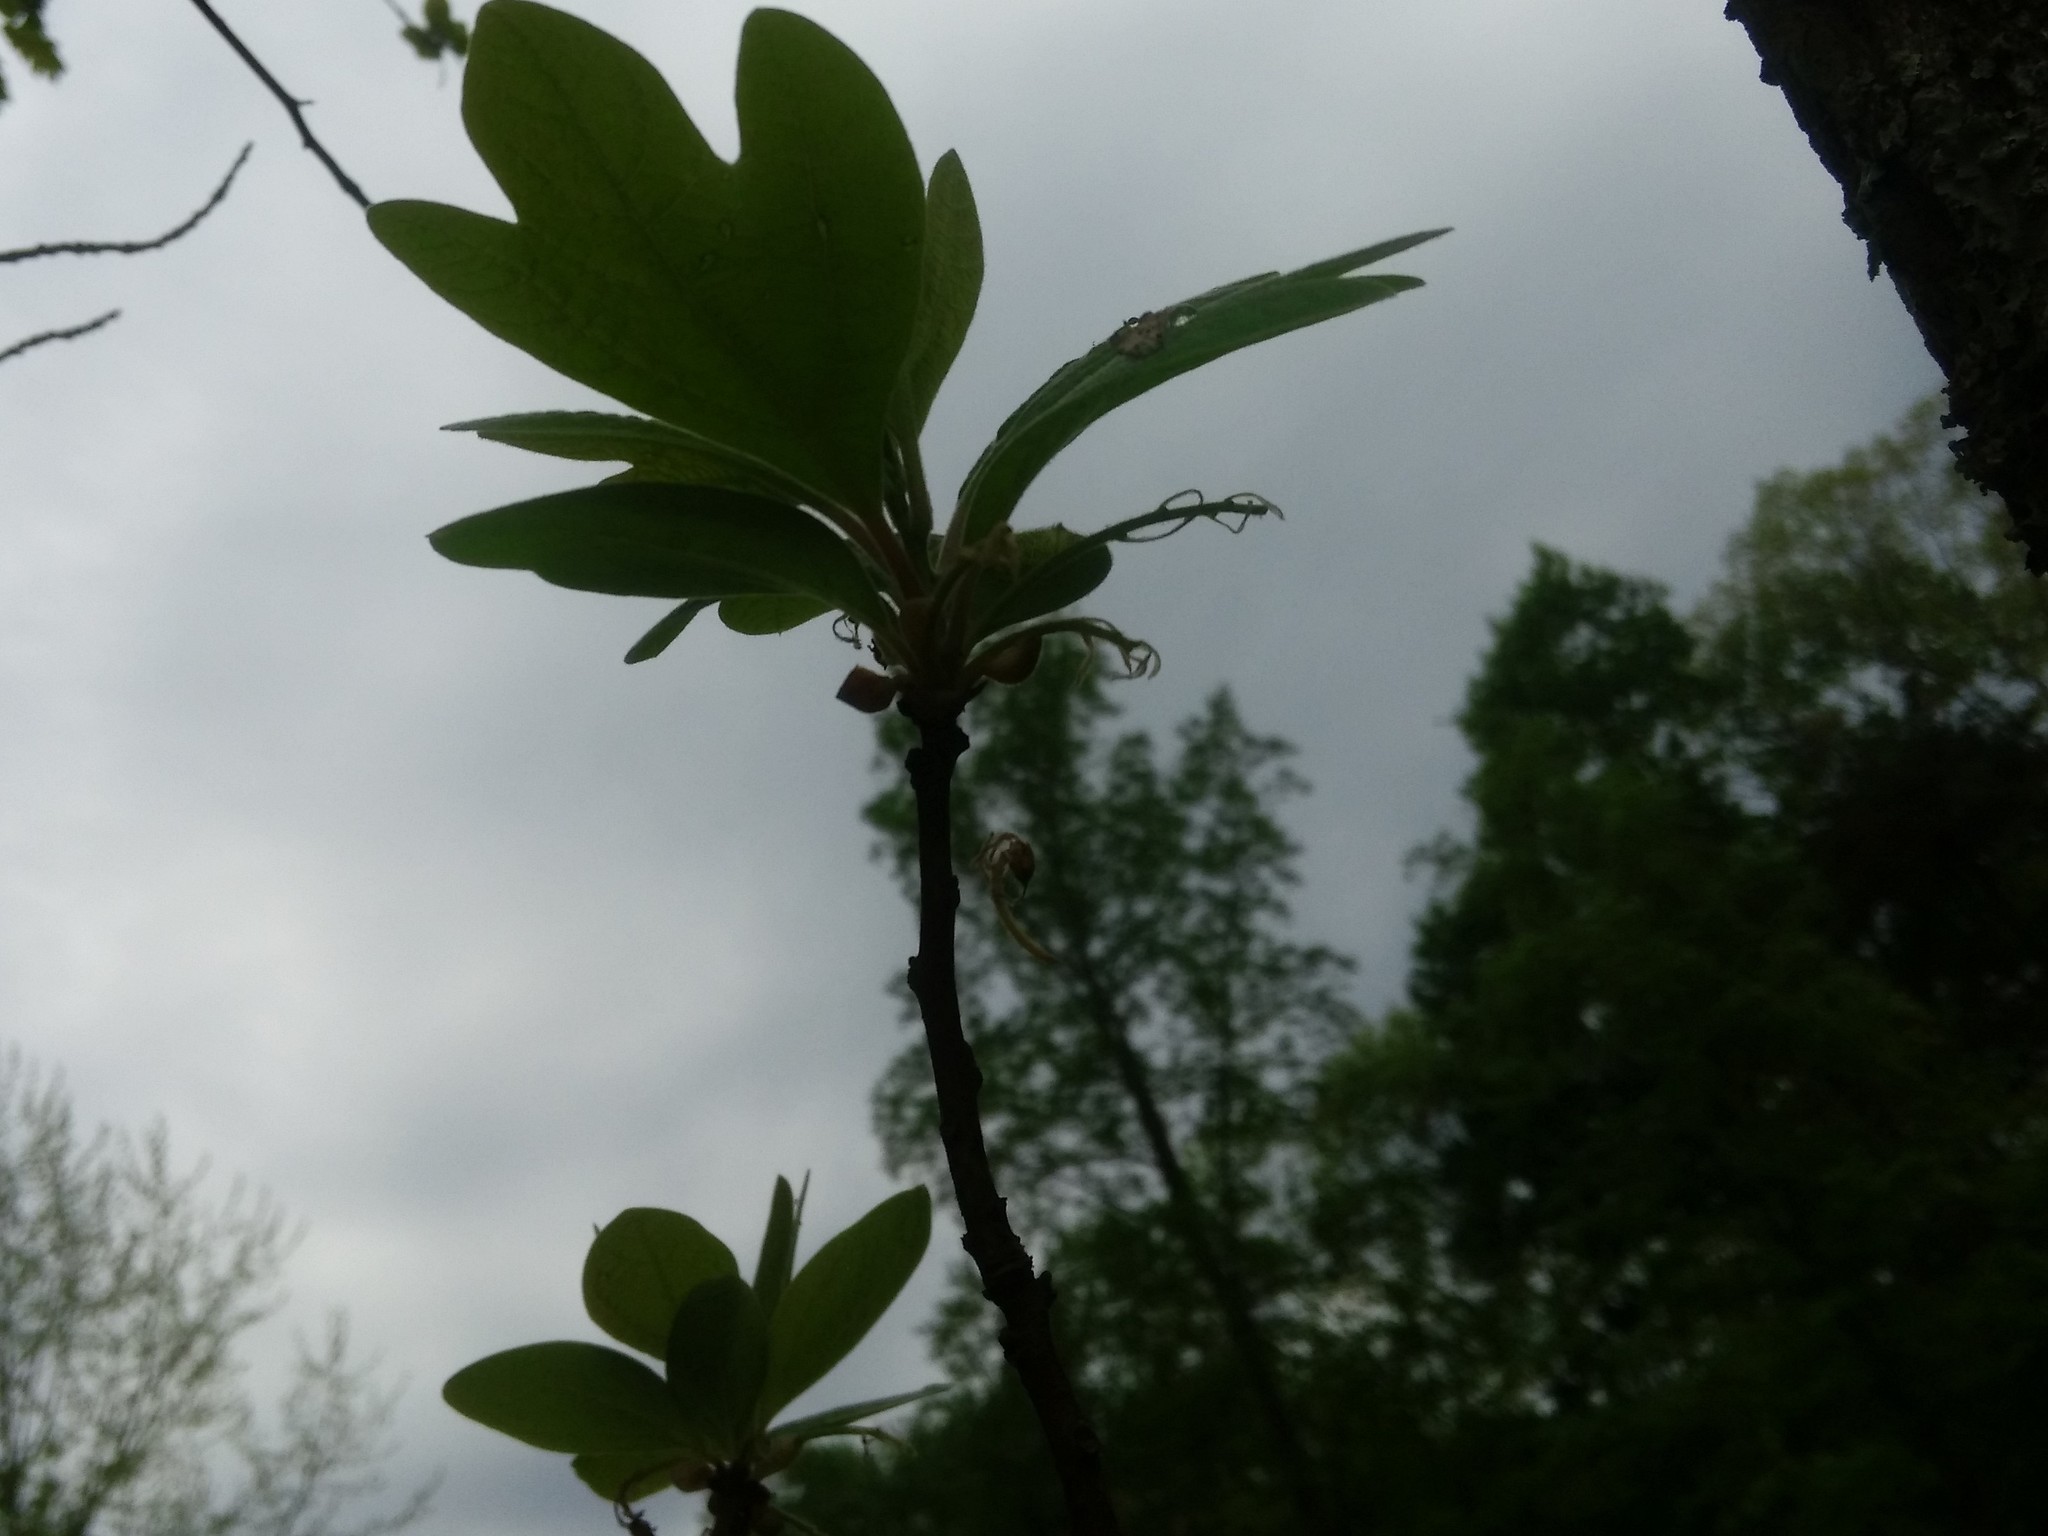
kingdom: Plantae
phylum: Tracheophyta
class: Magnoliopsida
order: Laurales
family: Lauraceae
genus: Sassafras
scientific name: Sassafras albidum
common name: Sassafras
